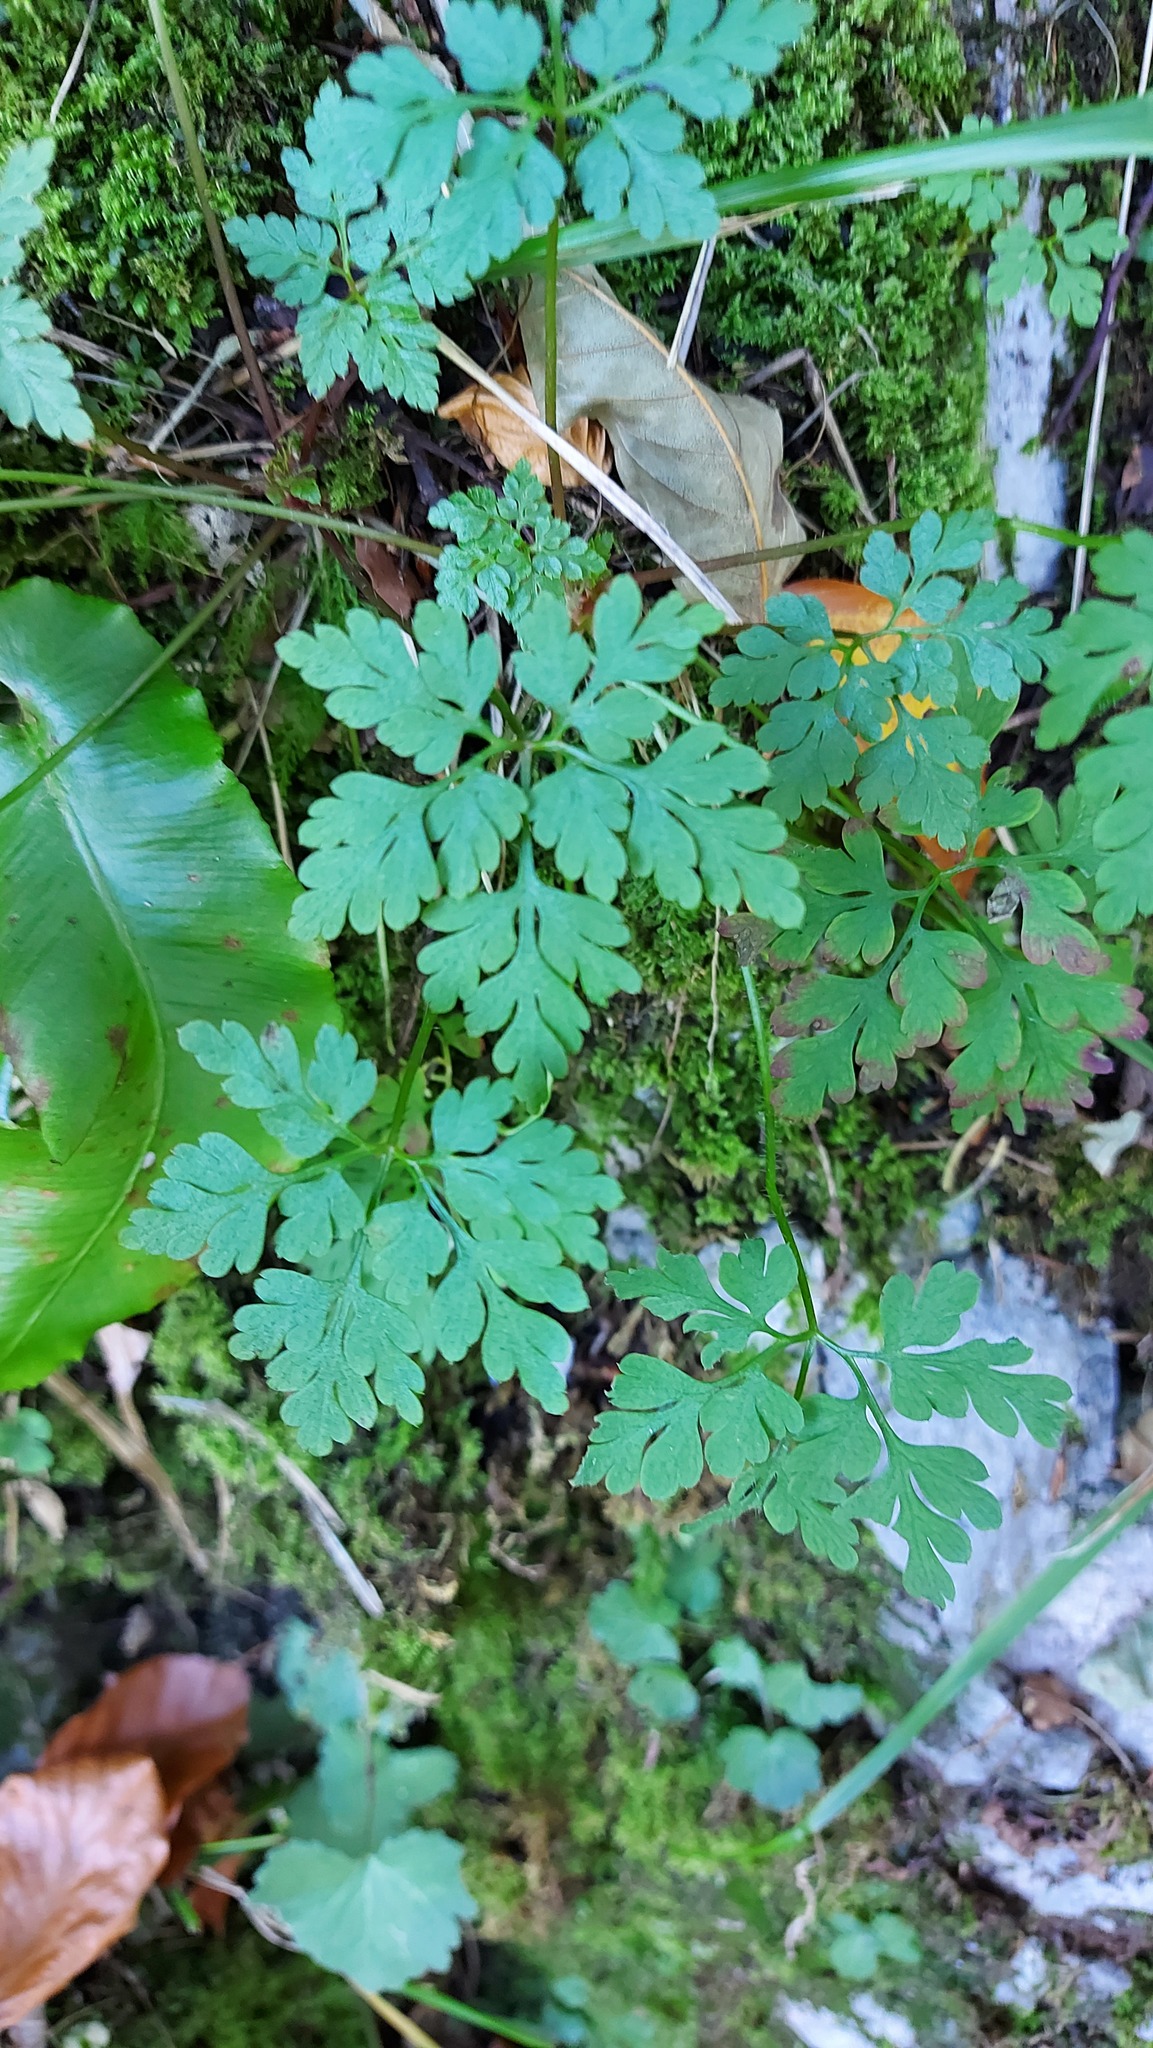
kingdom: Plantae
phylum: Tracheophyta
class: Magnoliopsida
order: Geraniales
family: Geraniaceae
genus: Geranium
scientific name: Geranium robertianum
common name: Herb-robert
